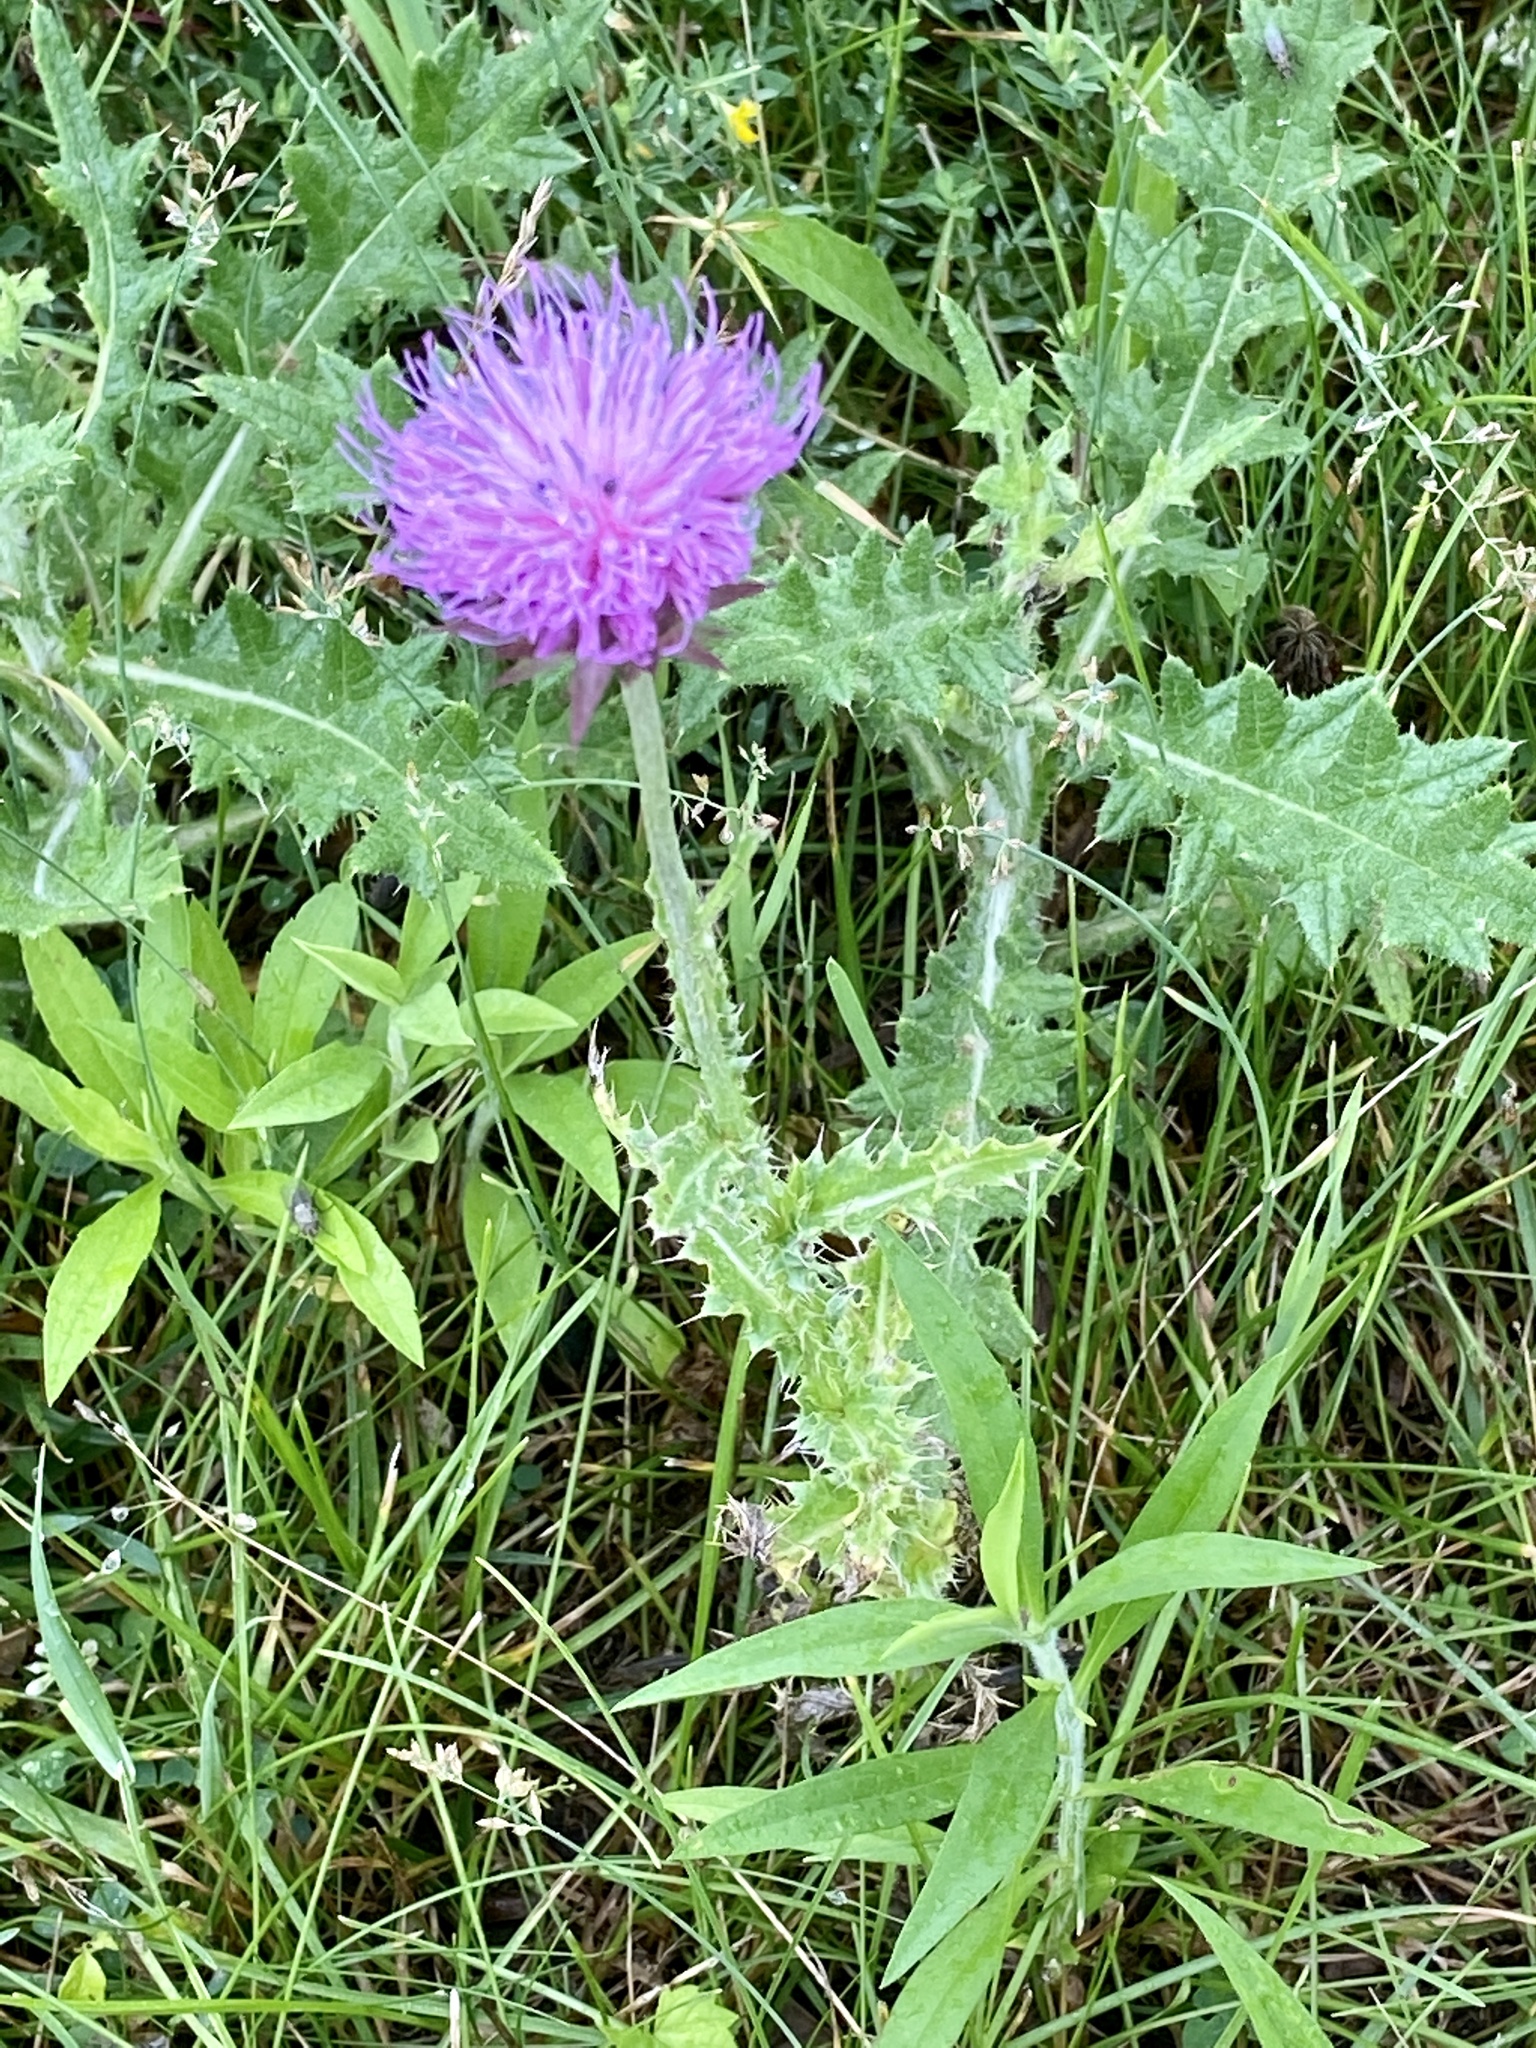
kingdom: Plantae
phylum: Tracheophyta
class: Magnoliopsida
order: Asterales
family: Asteraceae
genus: Carduus
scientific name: Carduus nutans
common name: Musk thistle
